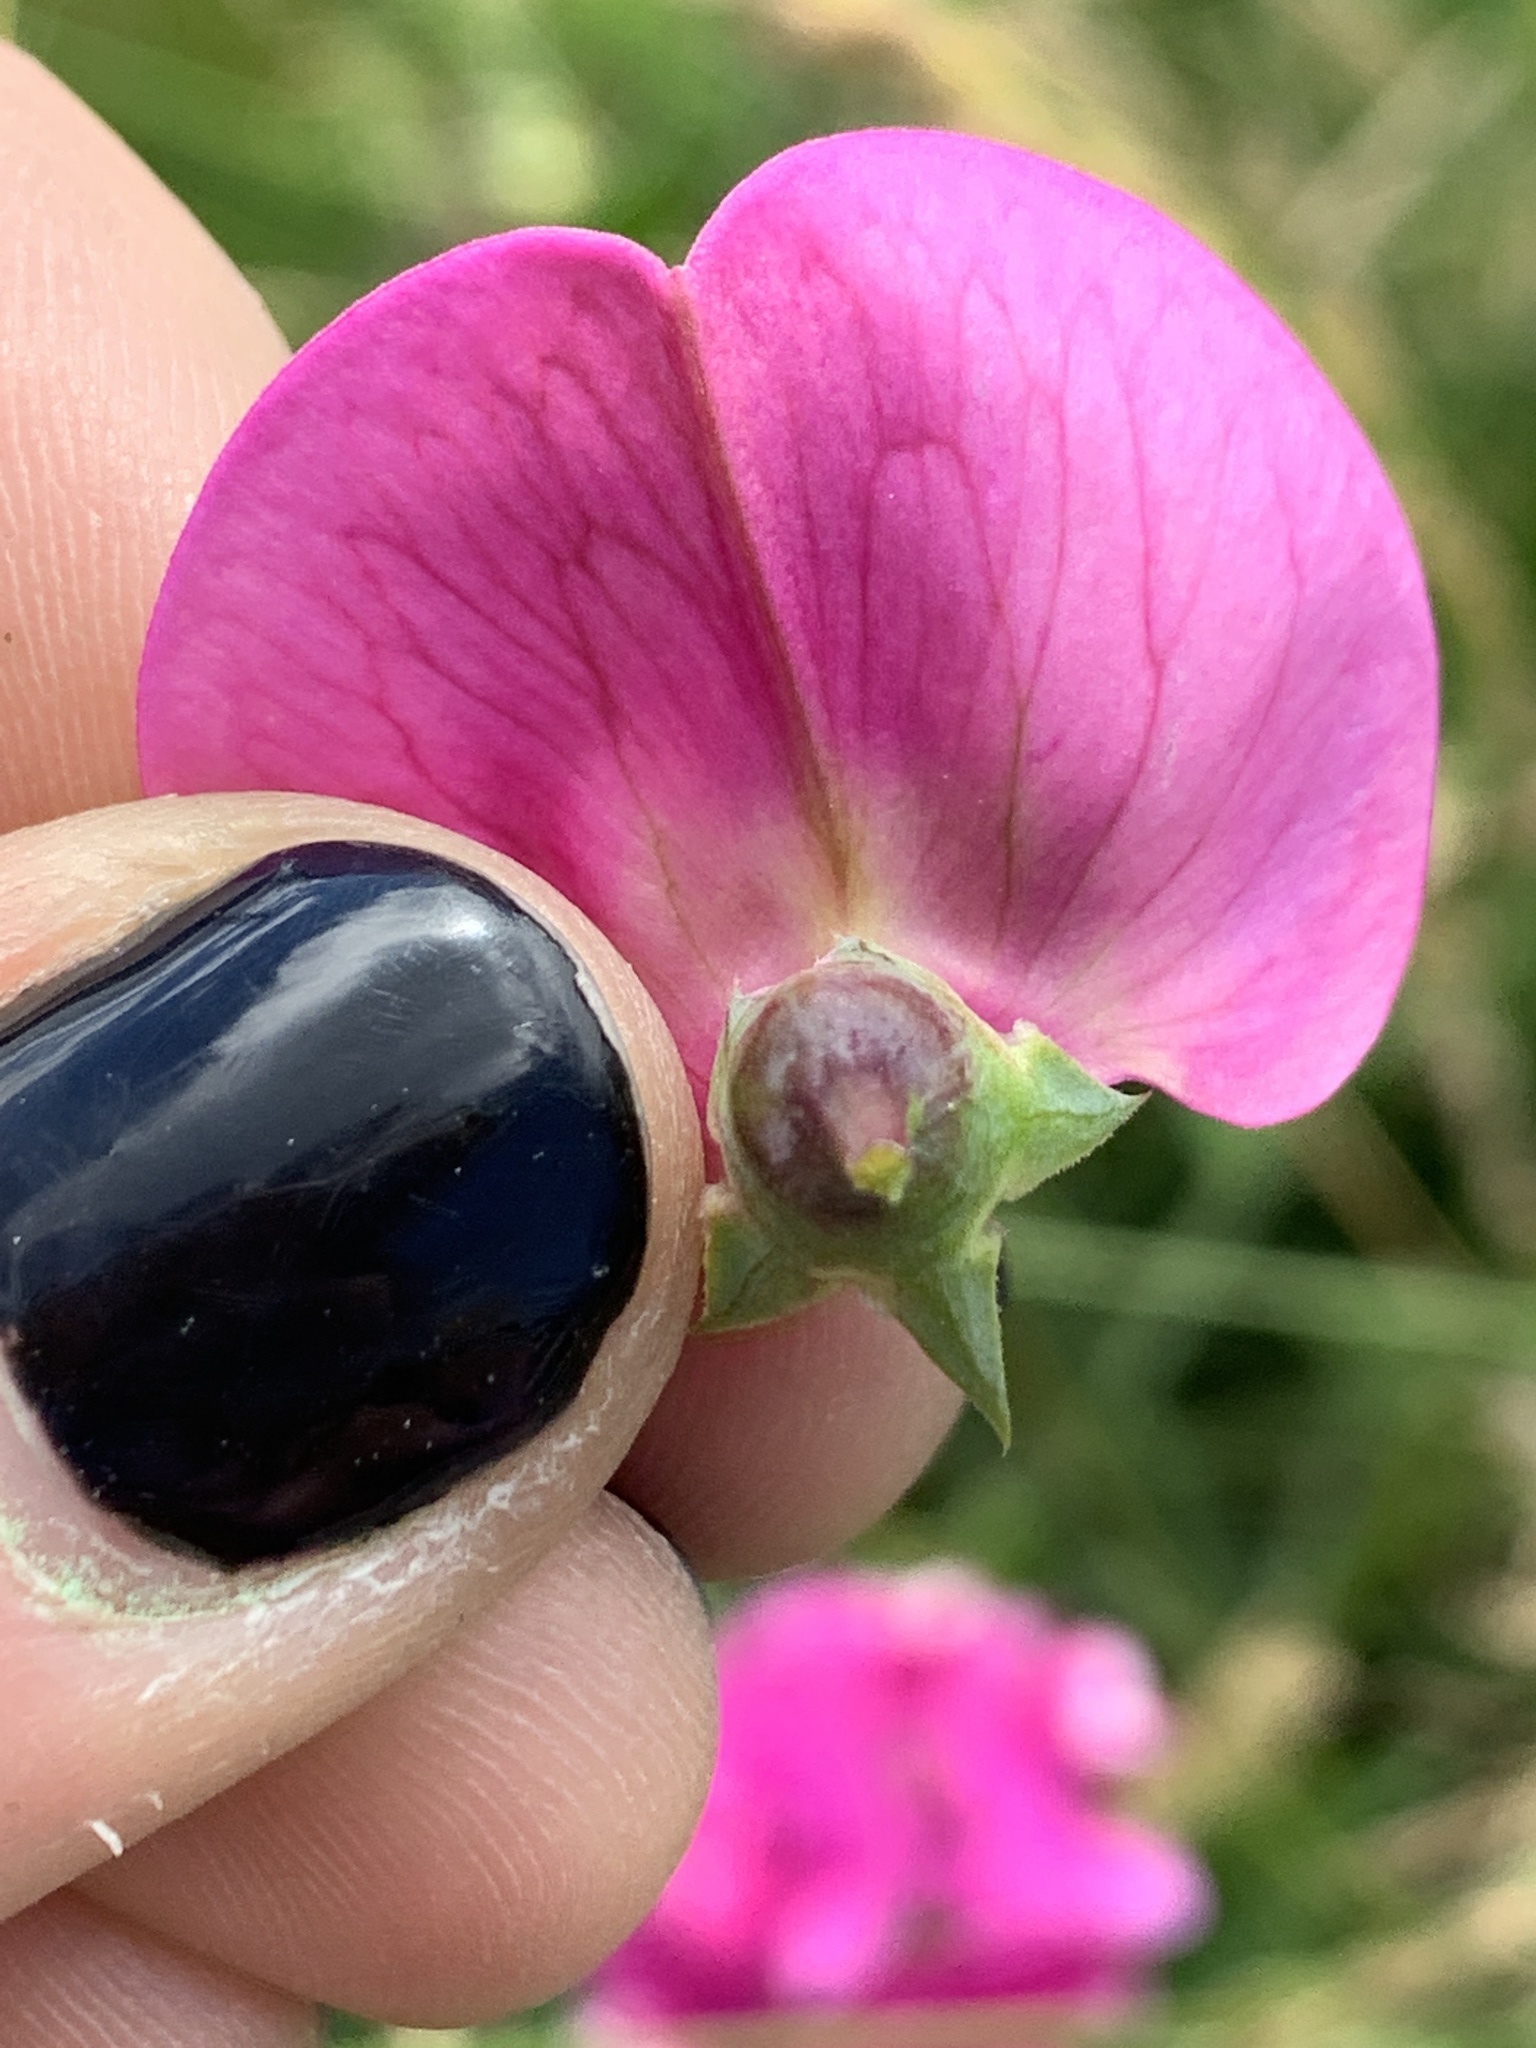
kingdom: Plantae
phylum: Tracheophyta
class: Magnoliopsida
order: Fabales
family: Fabaceae
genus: Lathyrus
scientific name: Lathyrus latifolius
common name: Perennial pea
